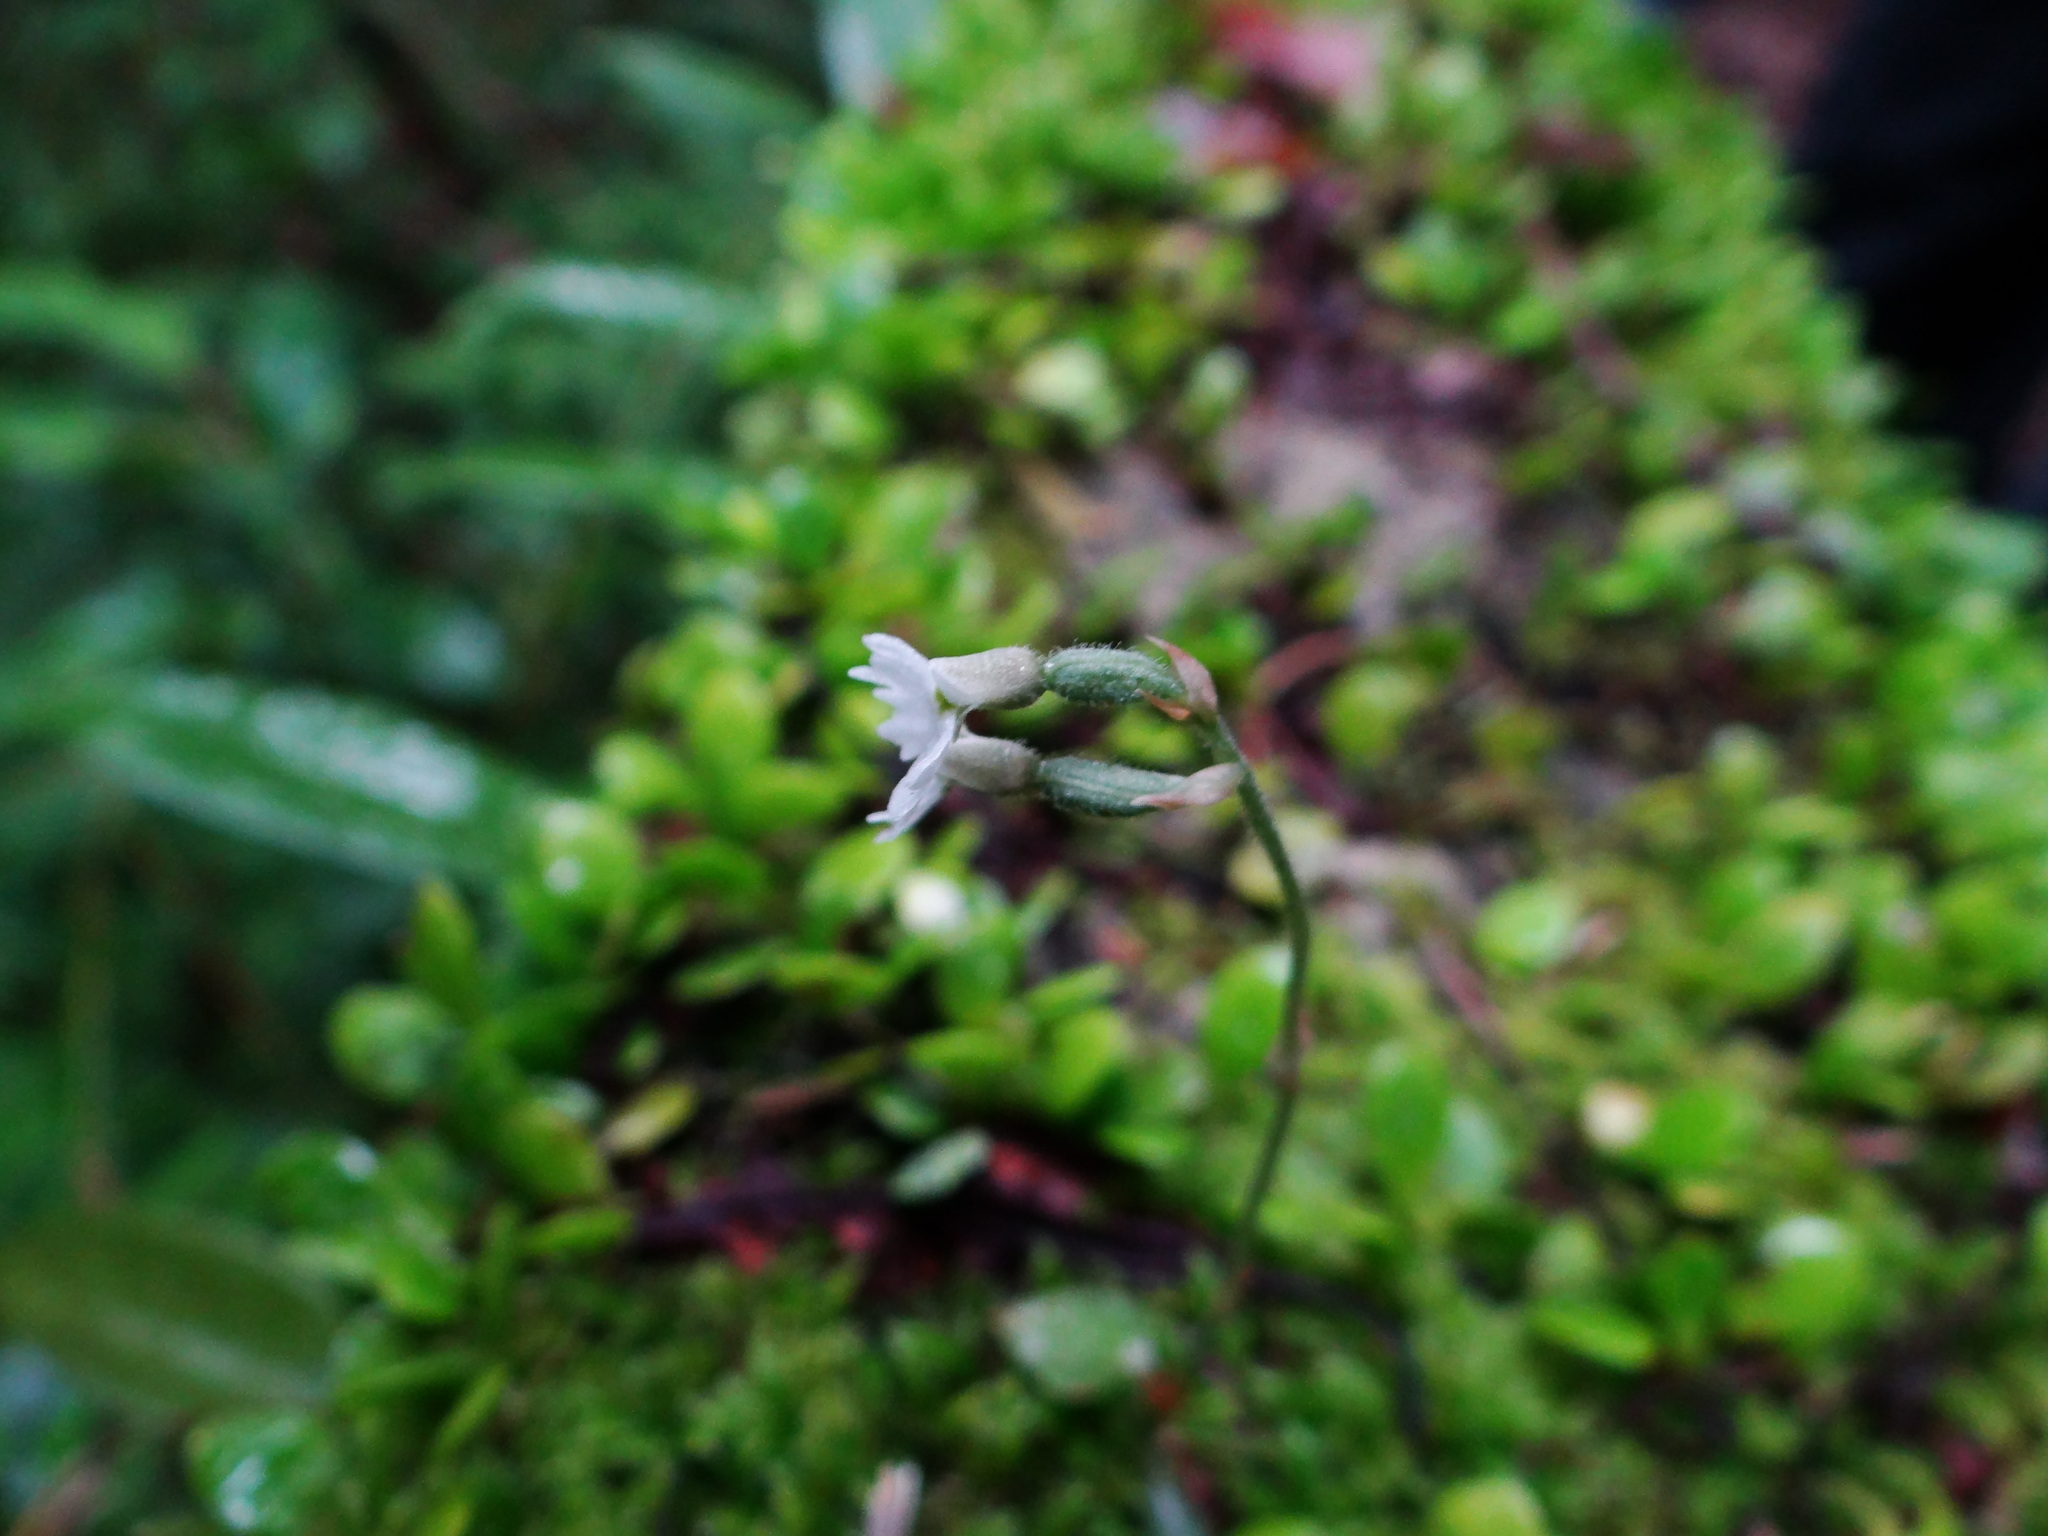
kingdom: Plantae
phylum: Tracheophyta
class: Liliopsida
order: Asparagales
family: Orchidaceae
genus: Cheirostylis
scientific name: Cheirostylis chinensis
